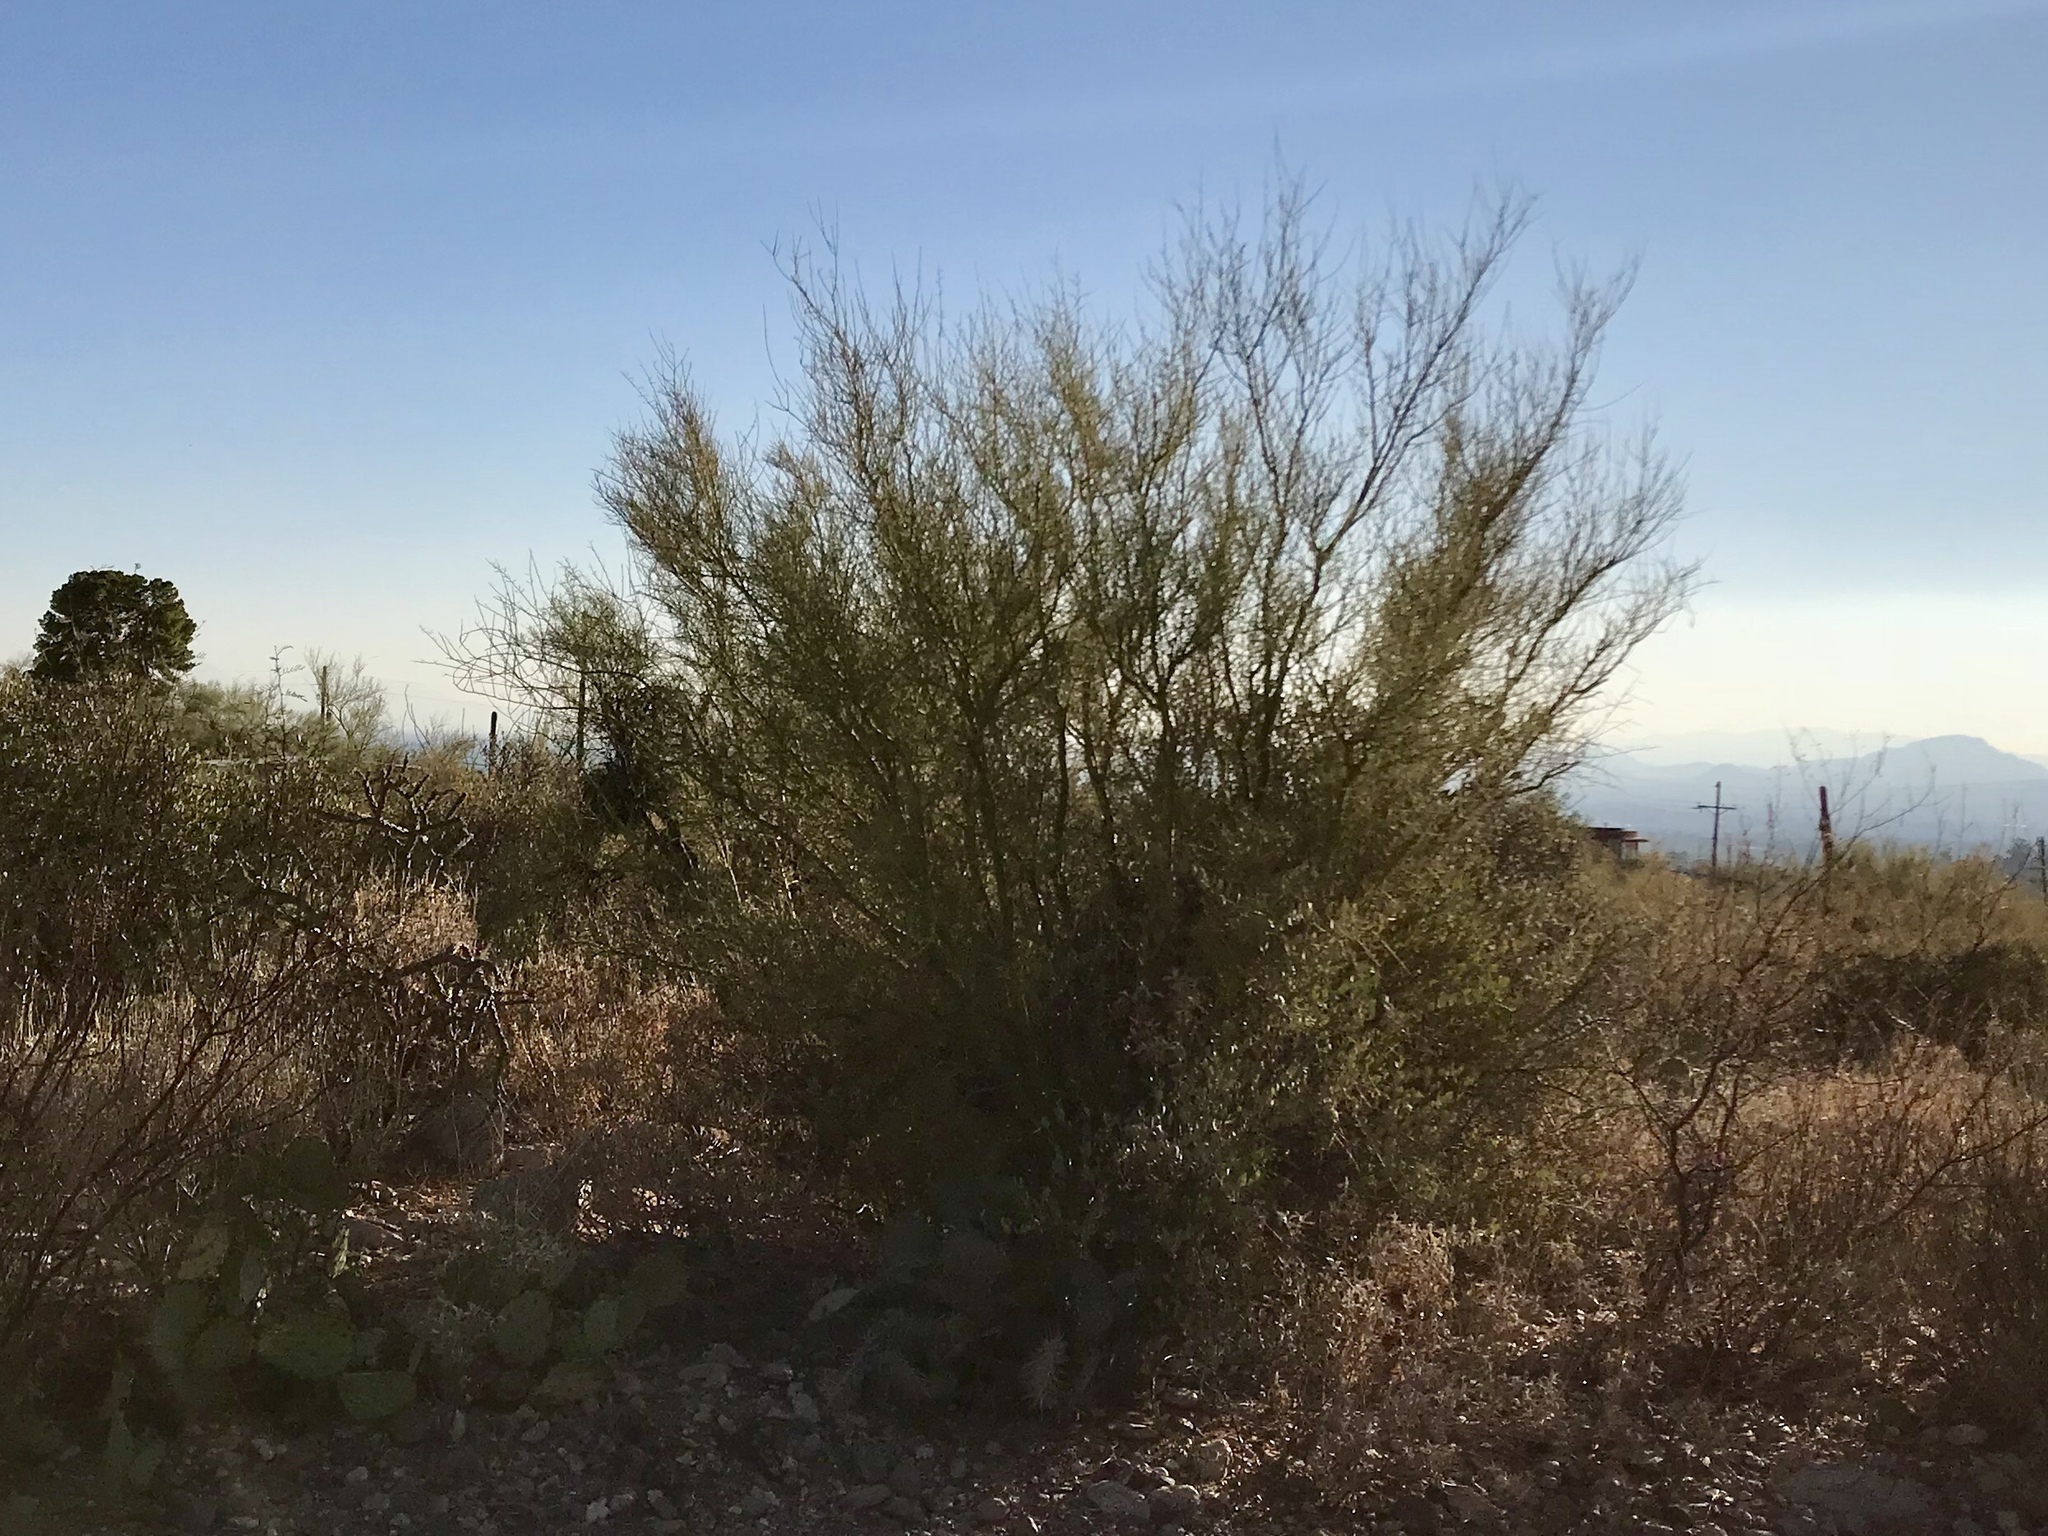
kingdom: Plantae
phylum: Tracheophyta
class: Magnoliopsida
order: Fabales
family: Fabaceae
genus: Parkinsonia
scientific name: Parkinsonia microphylla
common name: Yellow paloverde
